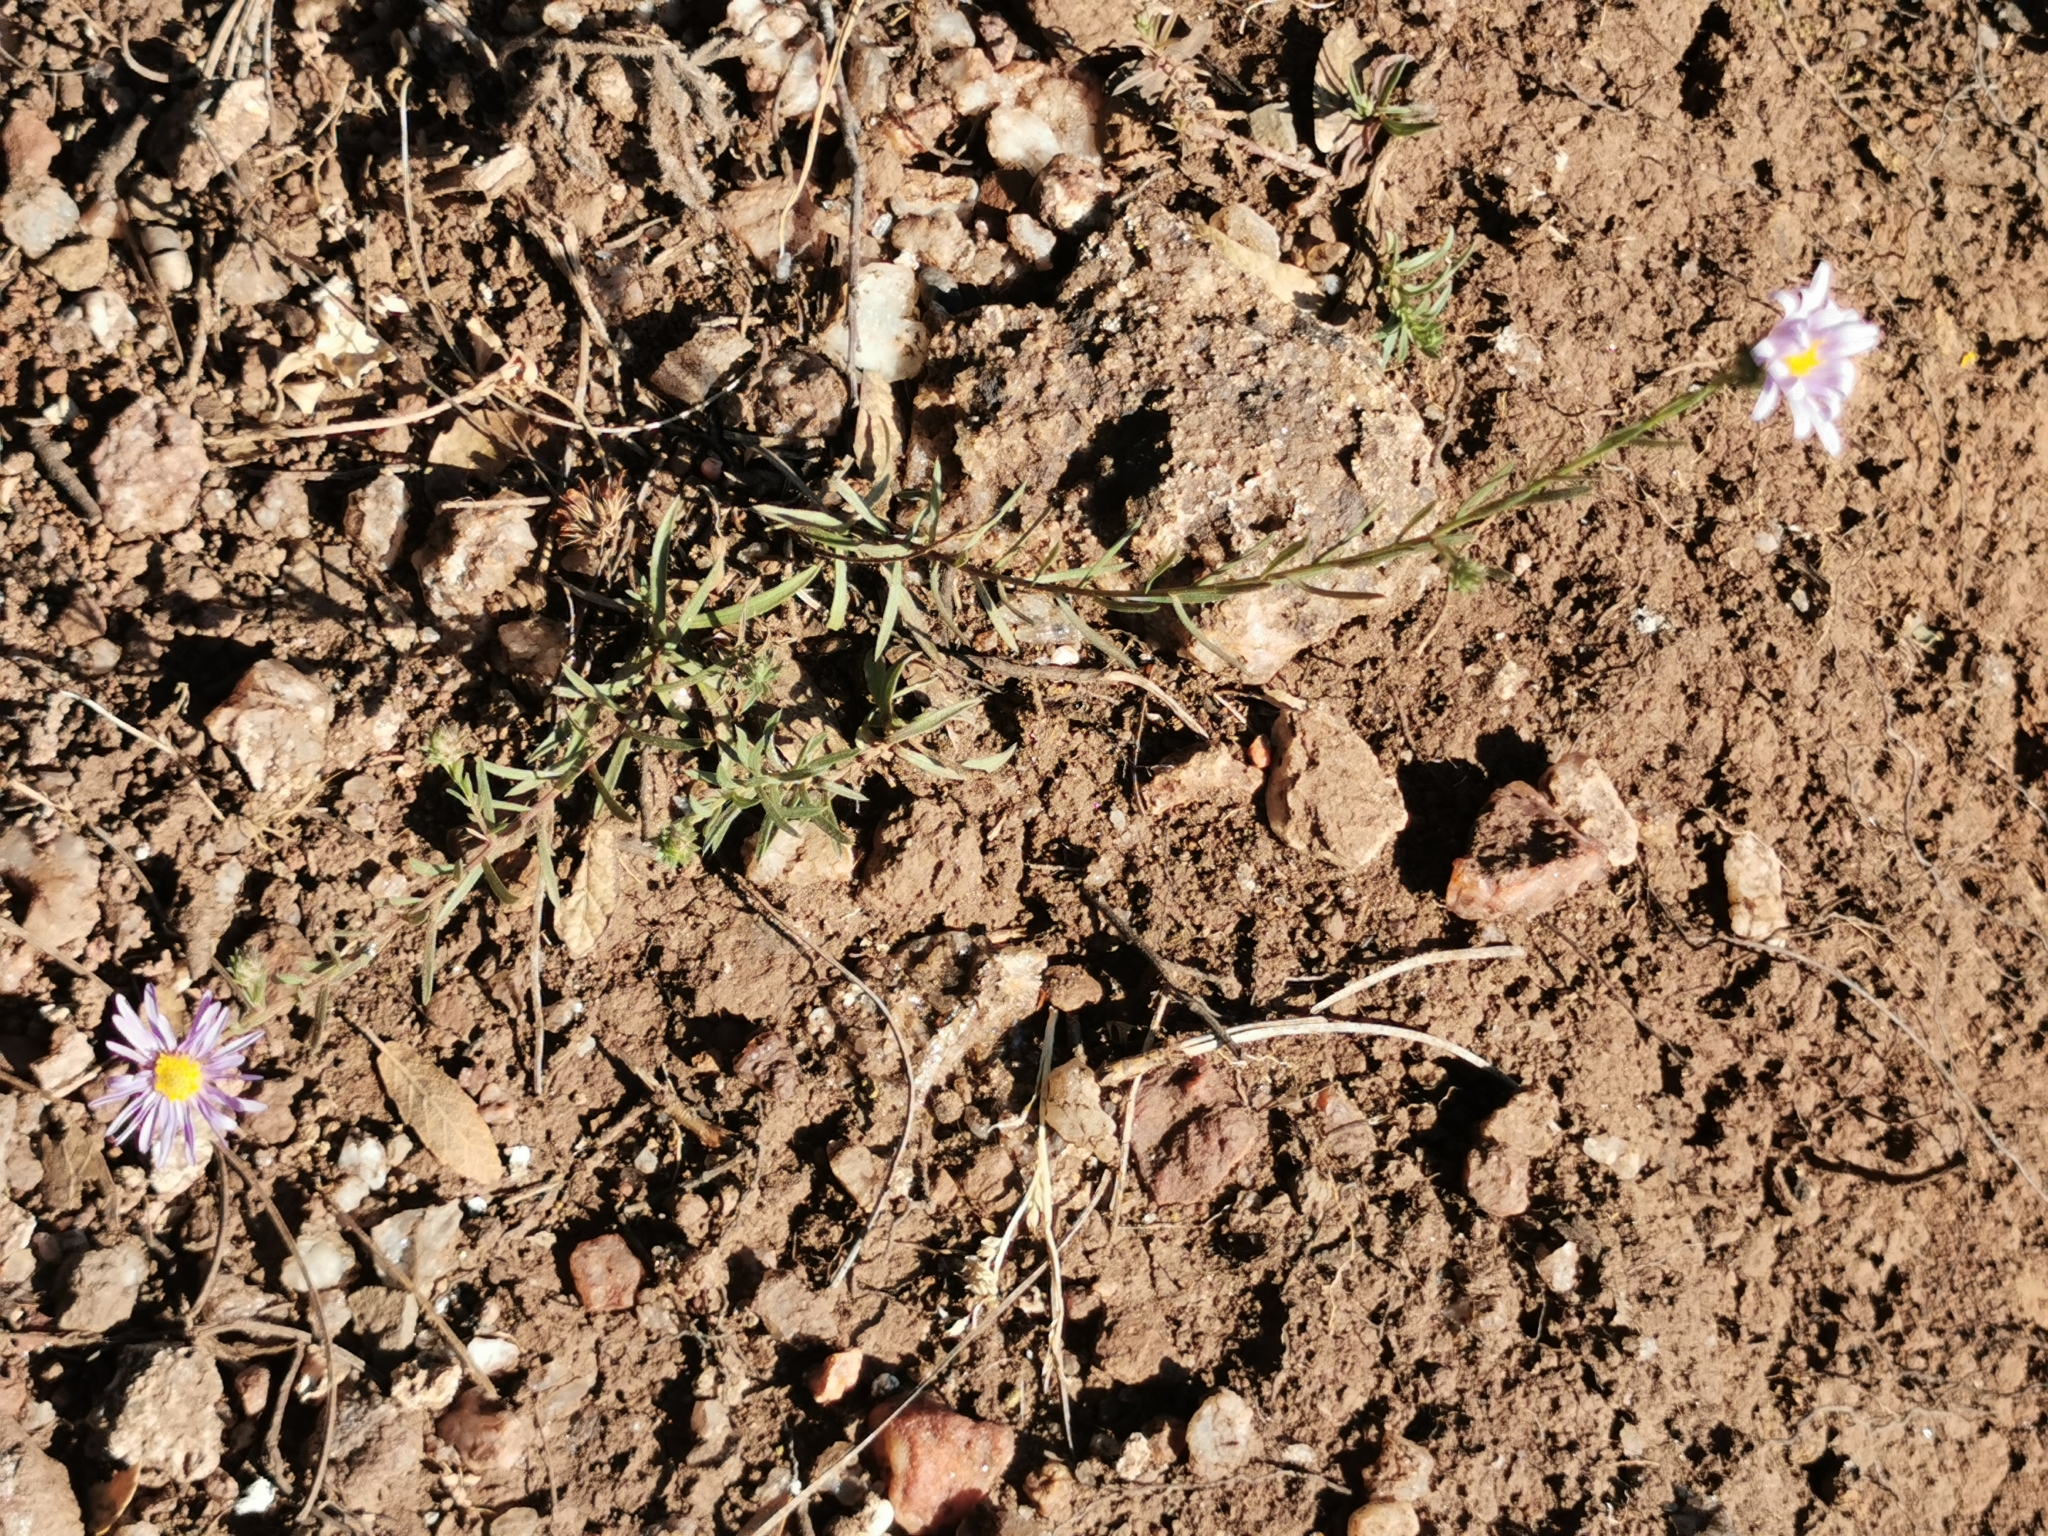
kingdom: Plantae
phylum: Tracheophyta
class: Magnoliopsida
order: Asterales
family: Asteraceae
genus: Symphyotrichum
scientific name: Symphyotrichum moranense
